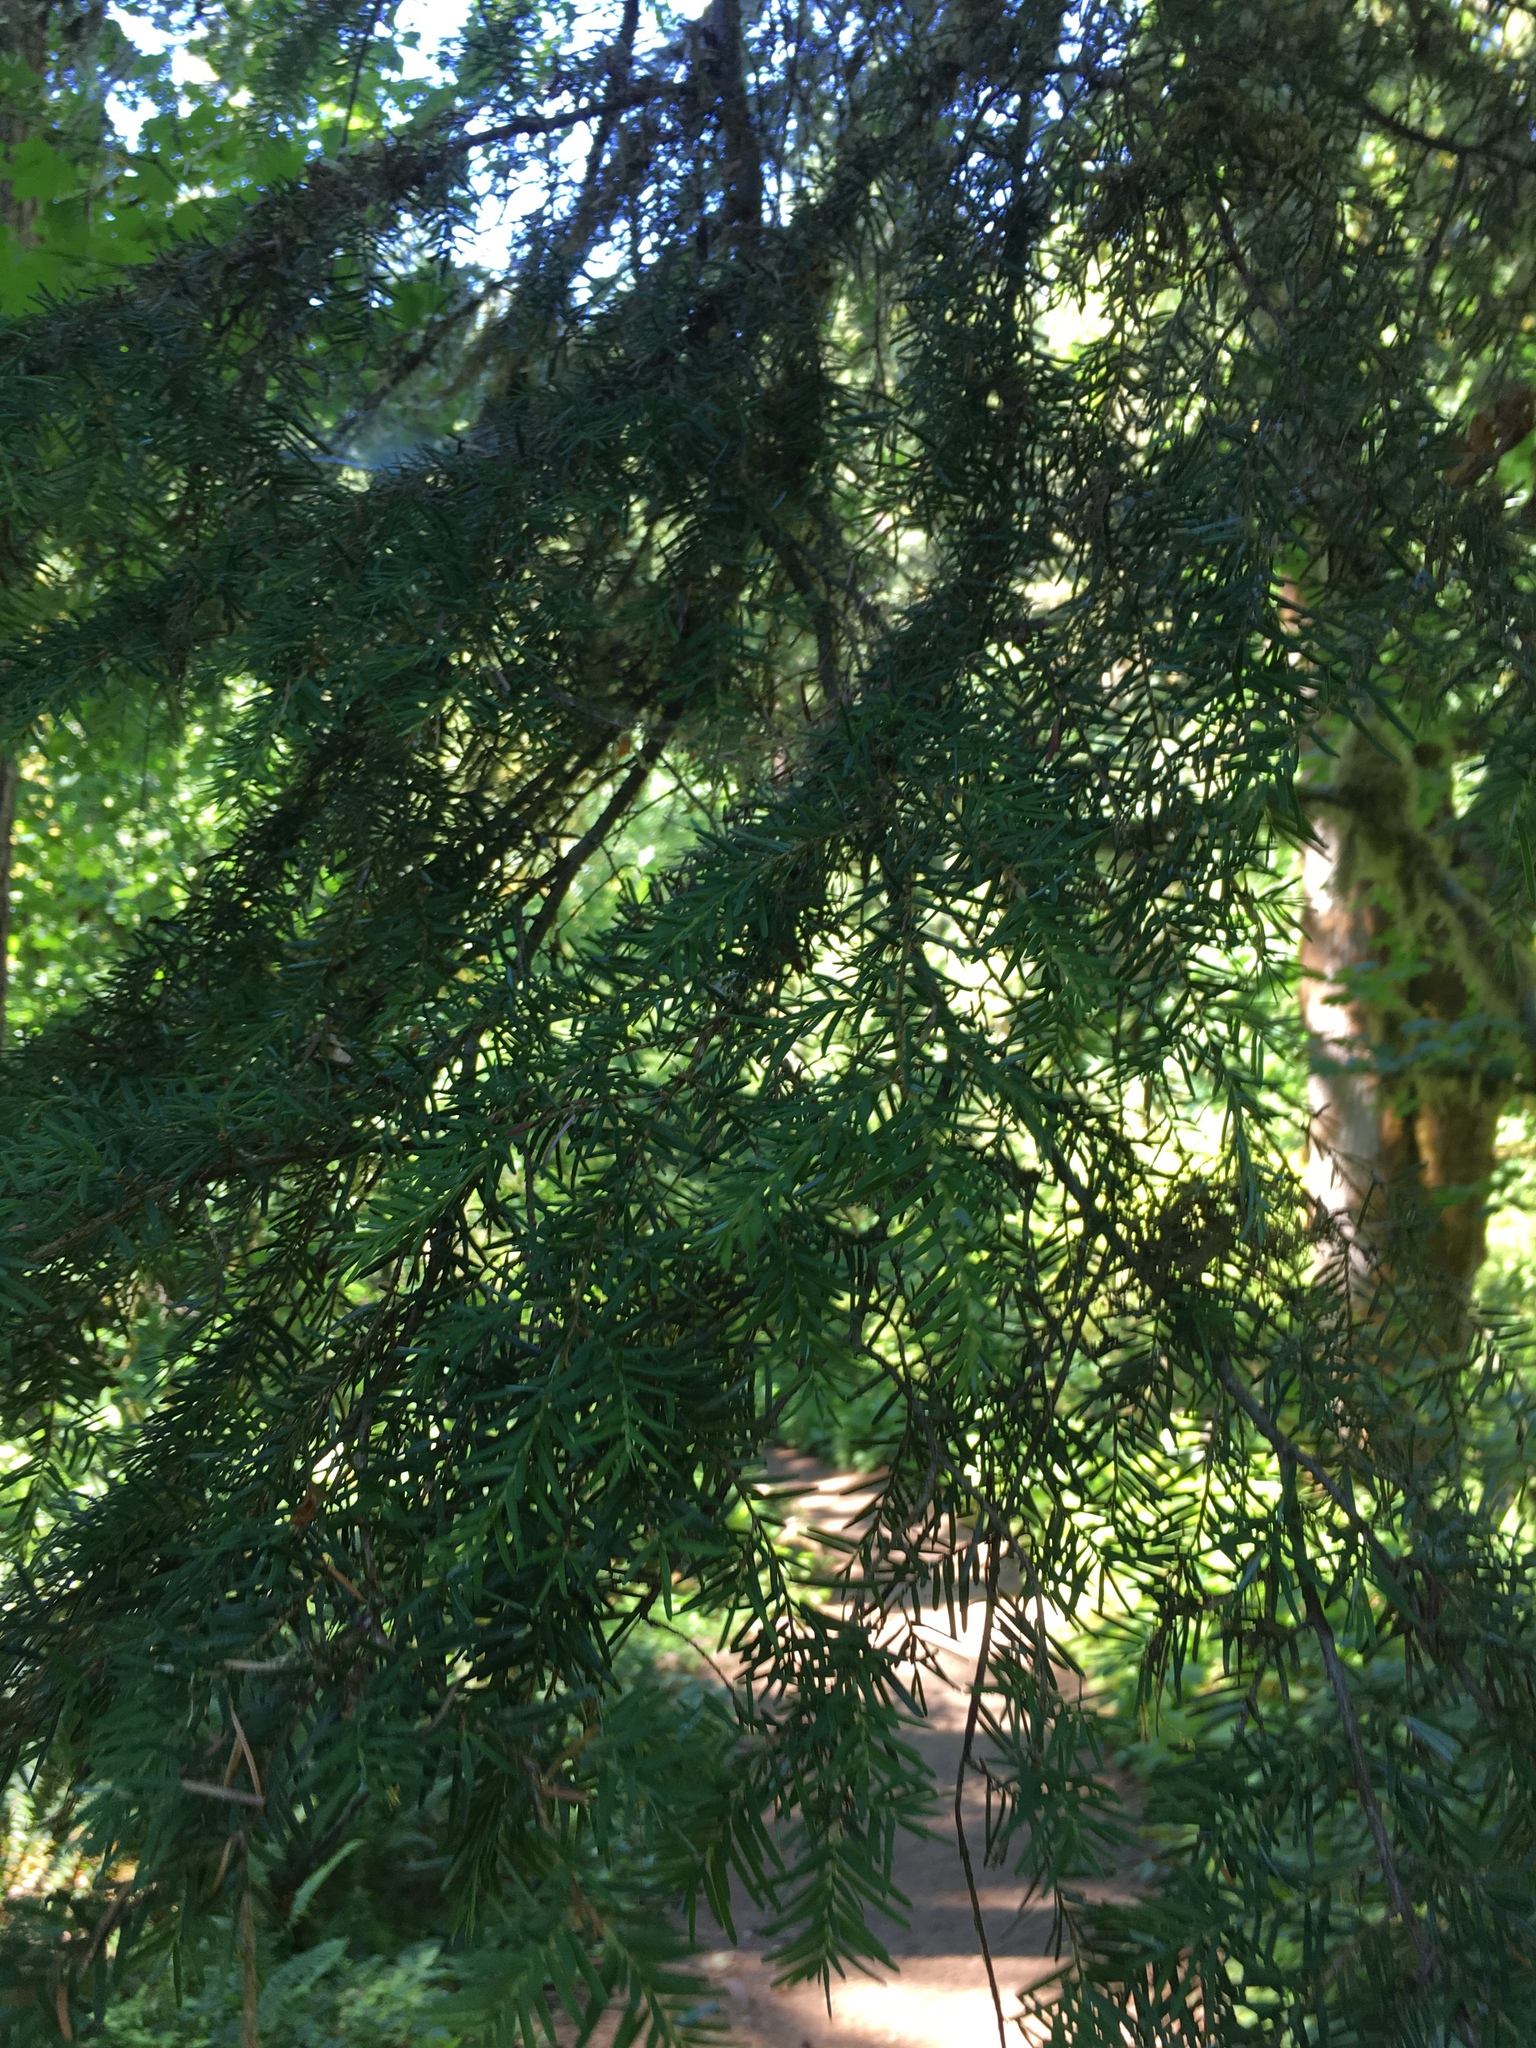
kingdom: Plantae
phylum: Tracheophyta
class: Pinopsida
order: Pinales
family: Pinaceae
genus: Tsuga
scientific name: Tsuga heterophylla
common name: Western hemlock
